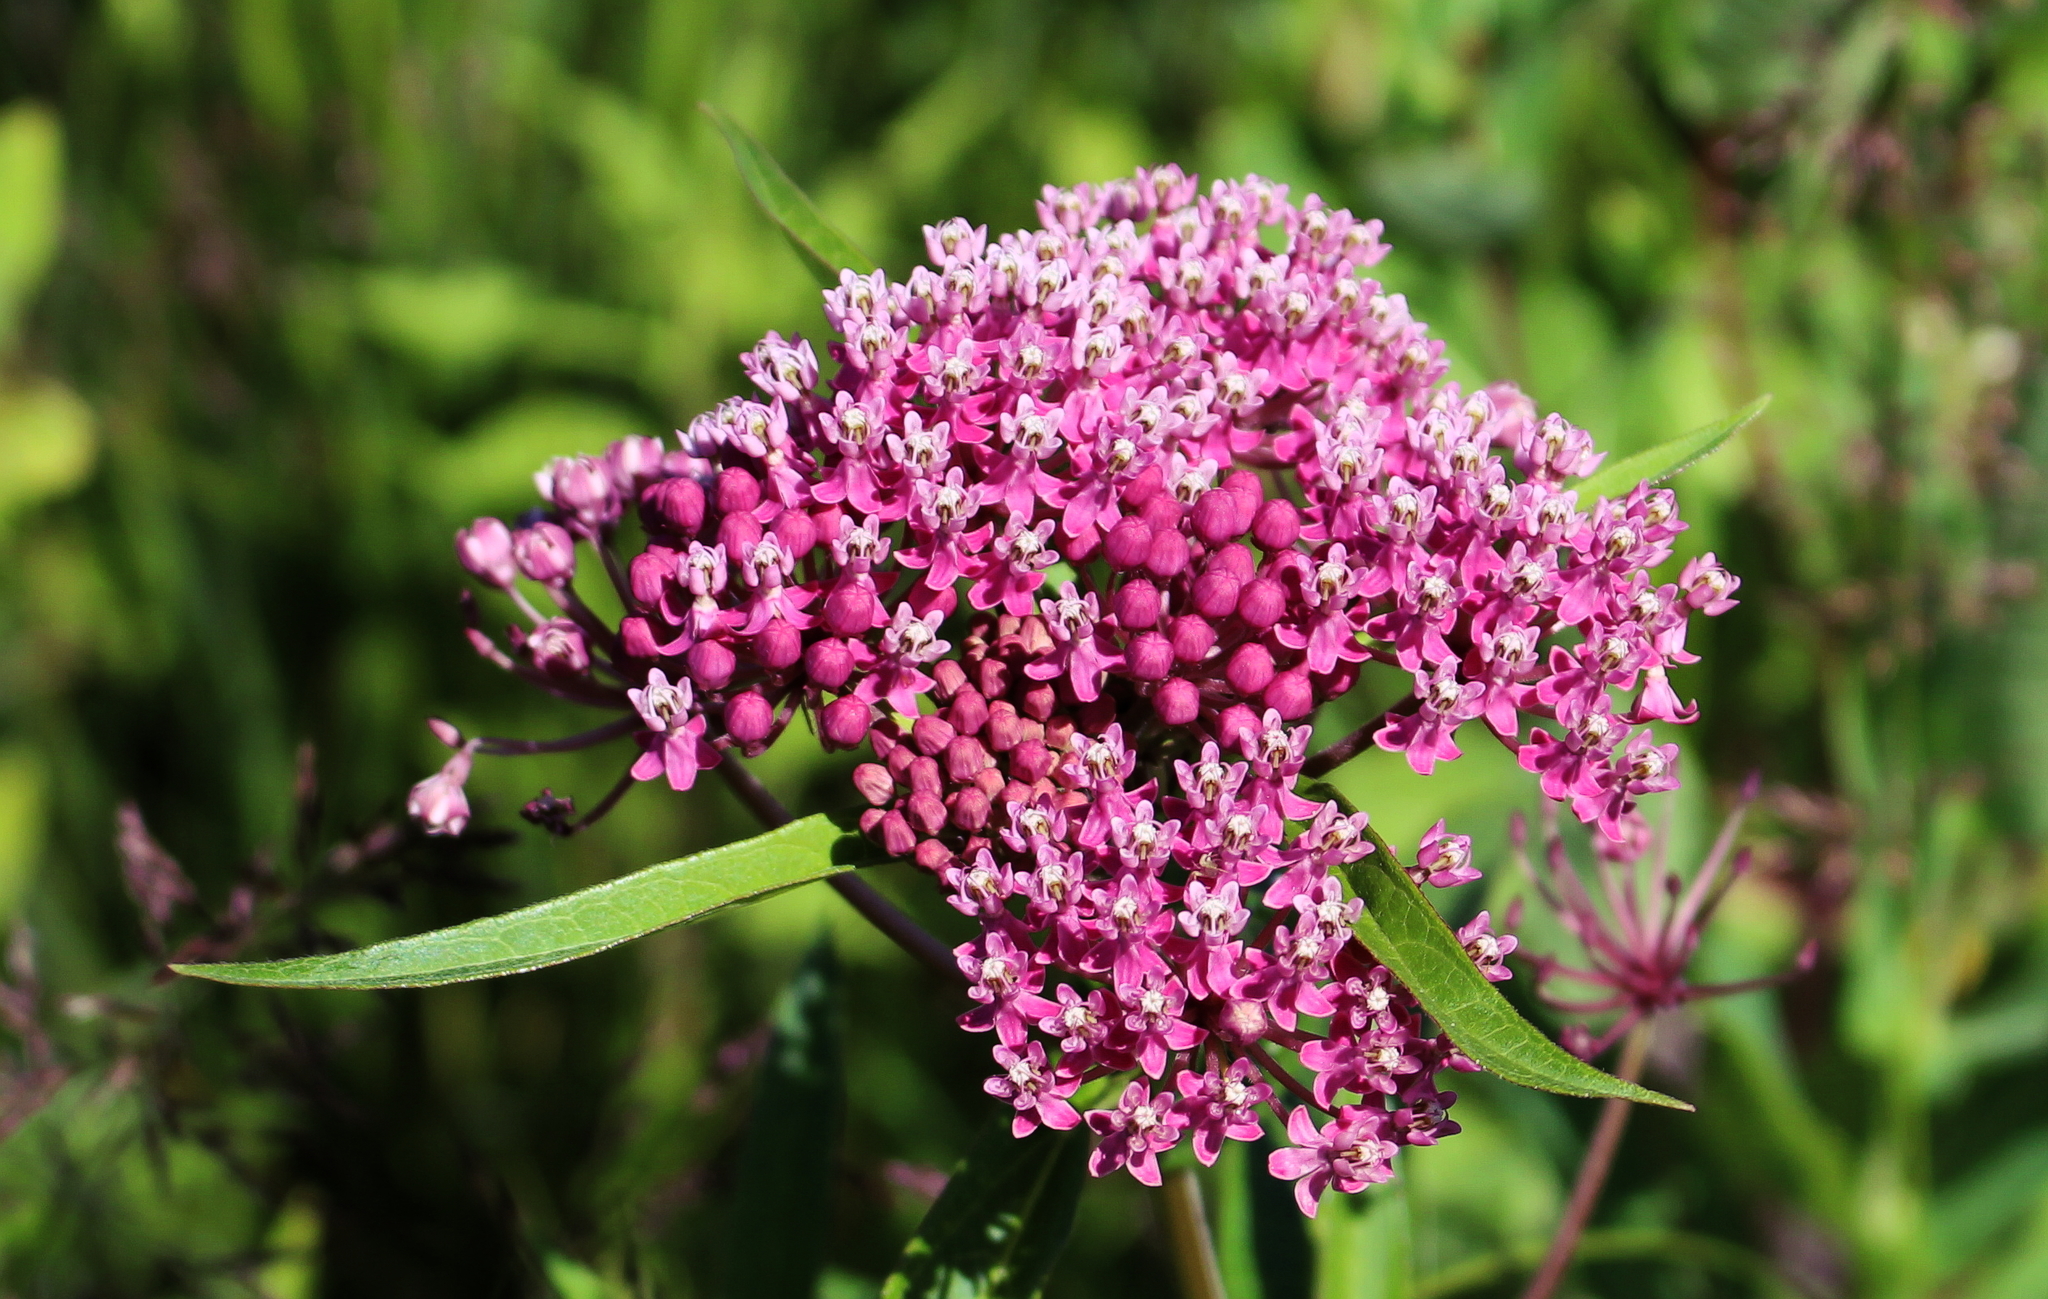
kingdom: Plantae
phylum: Tracheophyta
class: Magnoliopsida
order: Gentianales
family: Apocynaceae
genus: Asclepias
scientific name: Asclepias incarnata
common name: Swamp milkweed
